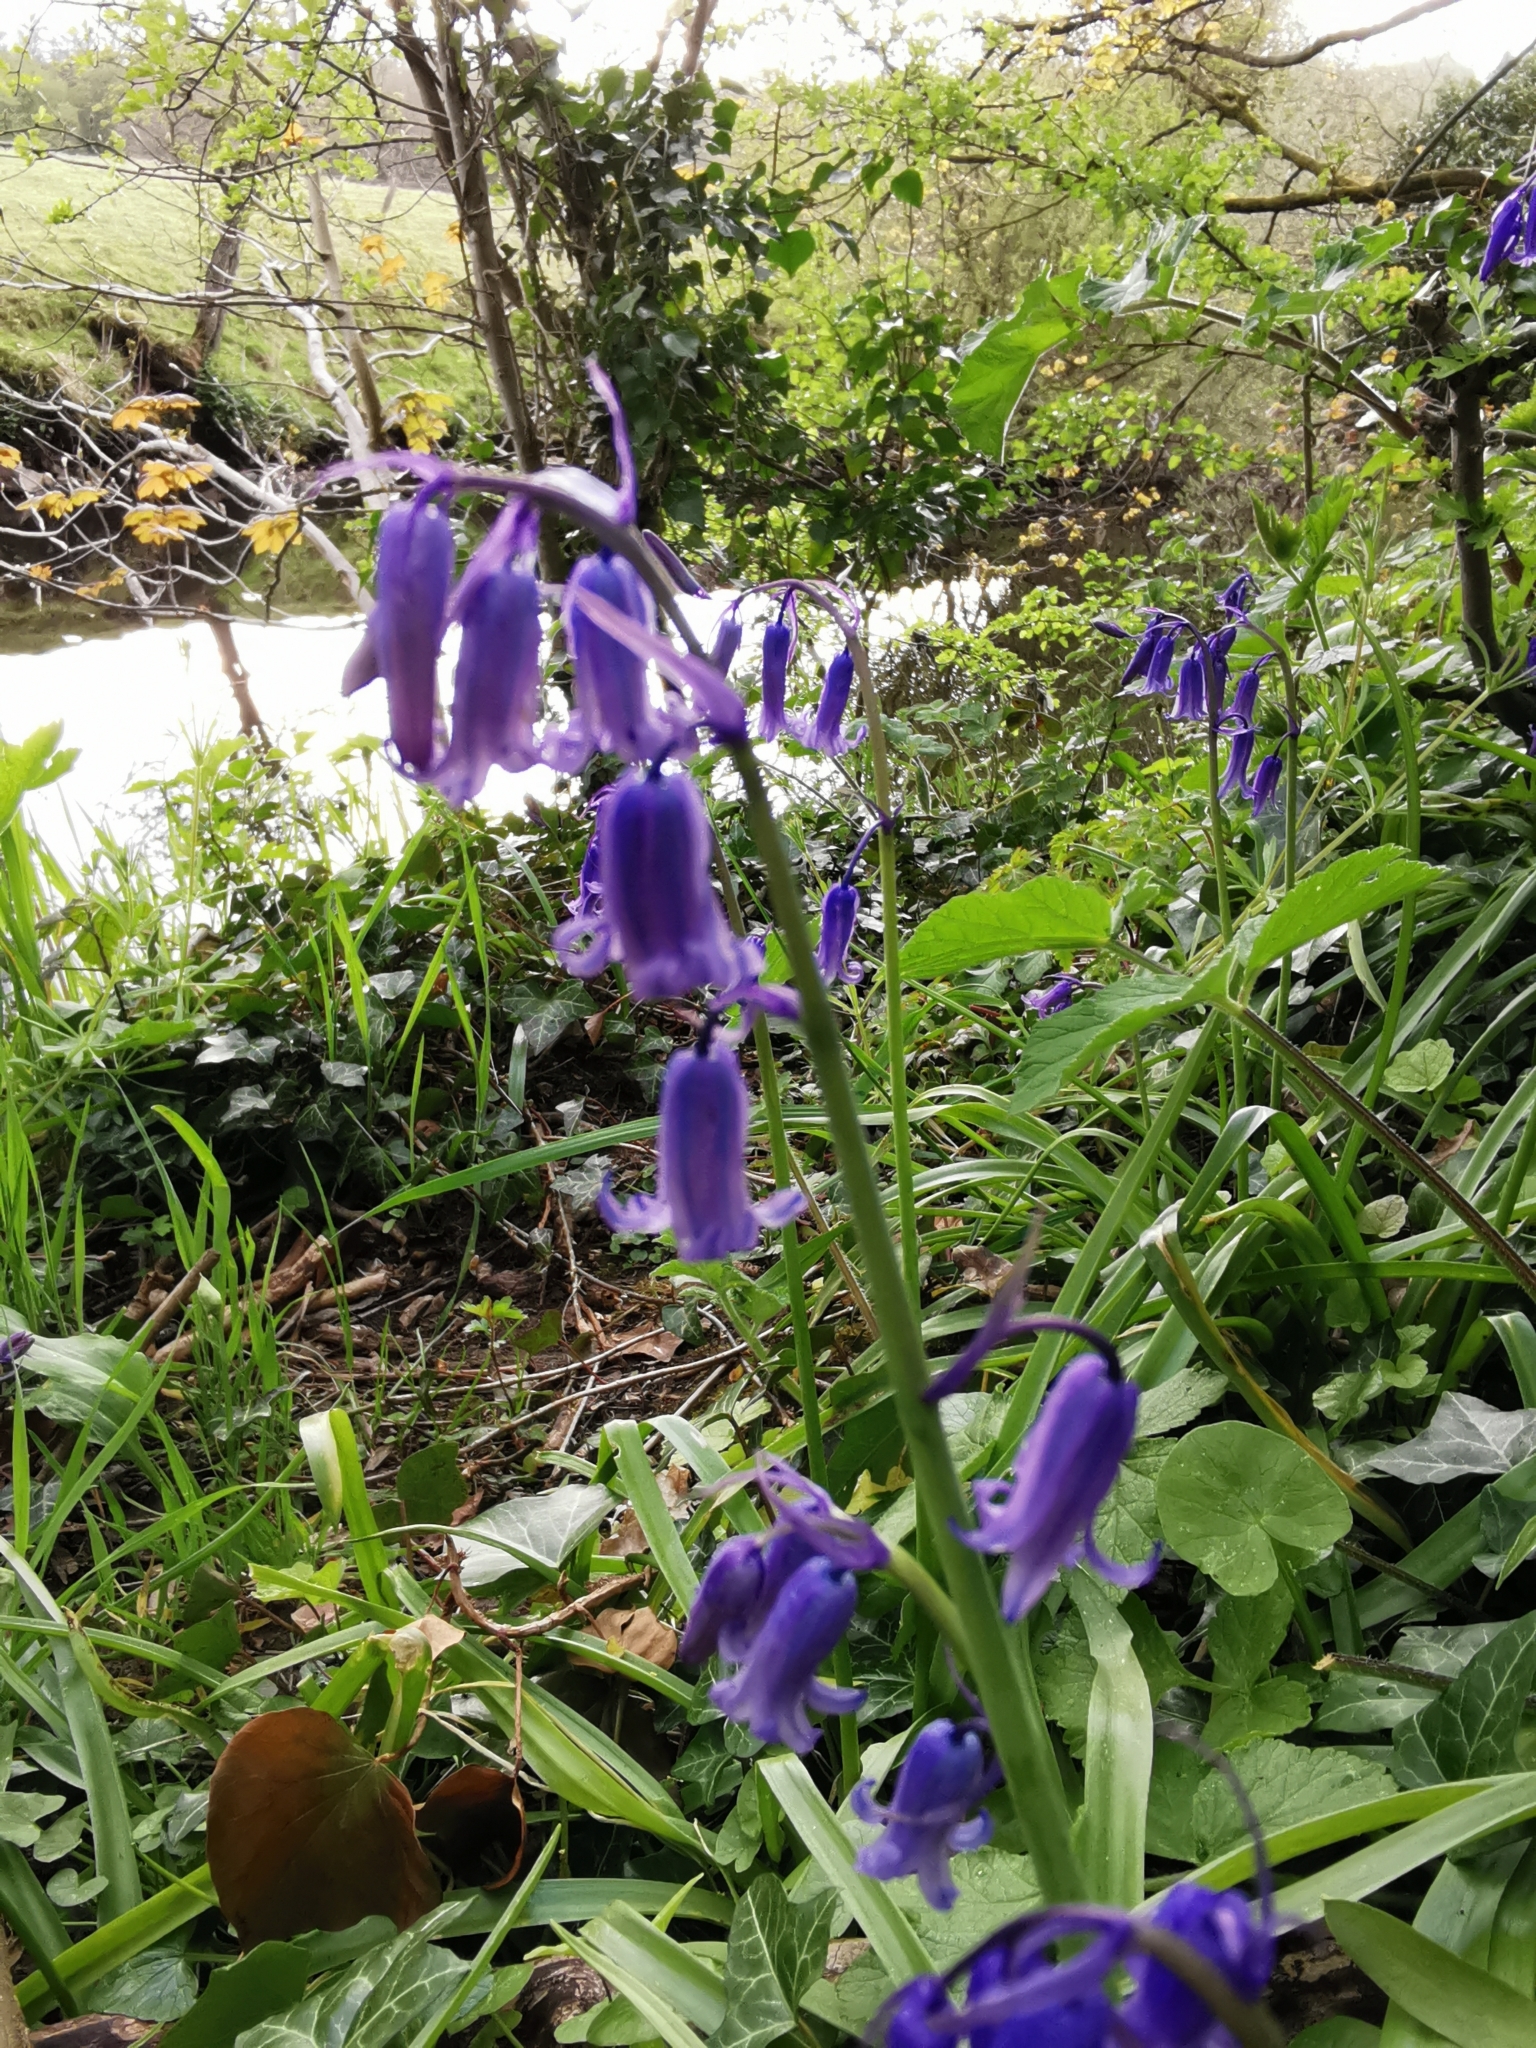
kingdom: Plantae
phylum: Tracheophyta
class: Liliopsida
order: Asparagales
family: Asparagaceae
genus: Hyacinthoides
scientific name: Hyacinthoides non-scripta
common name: Bluebell
